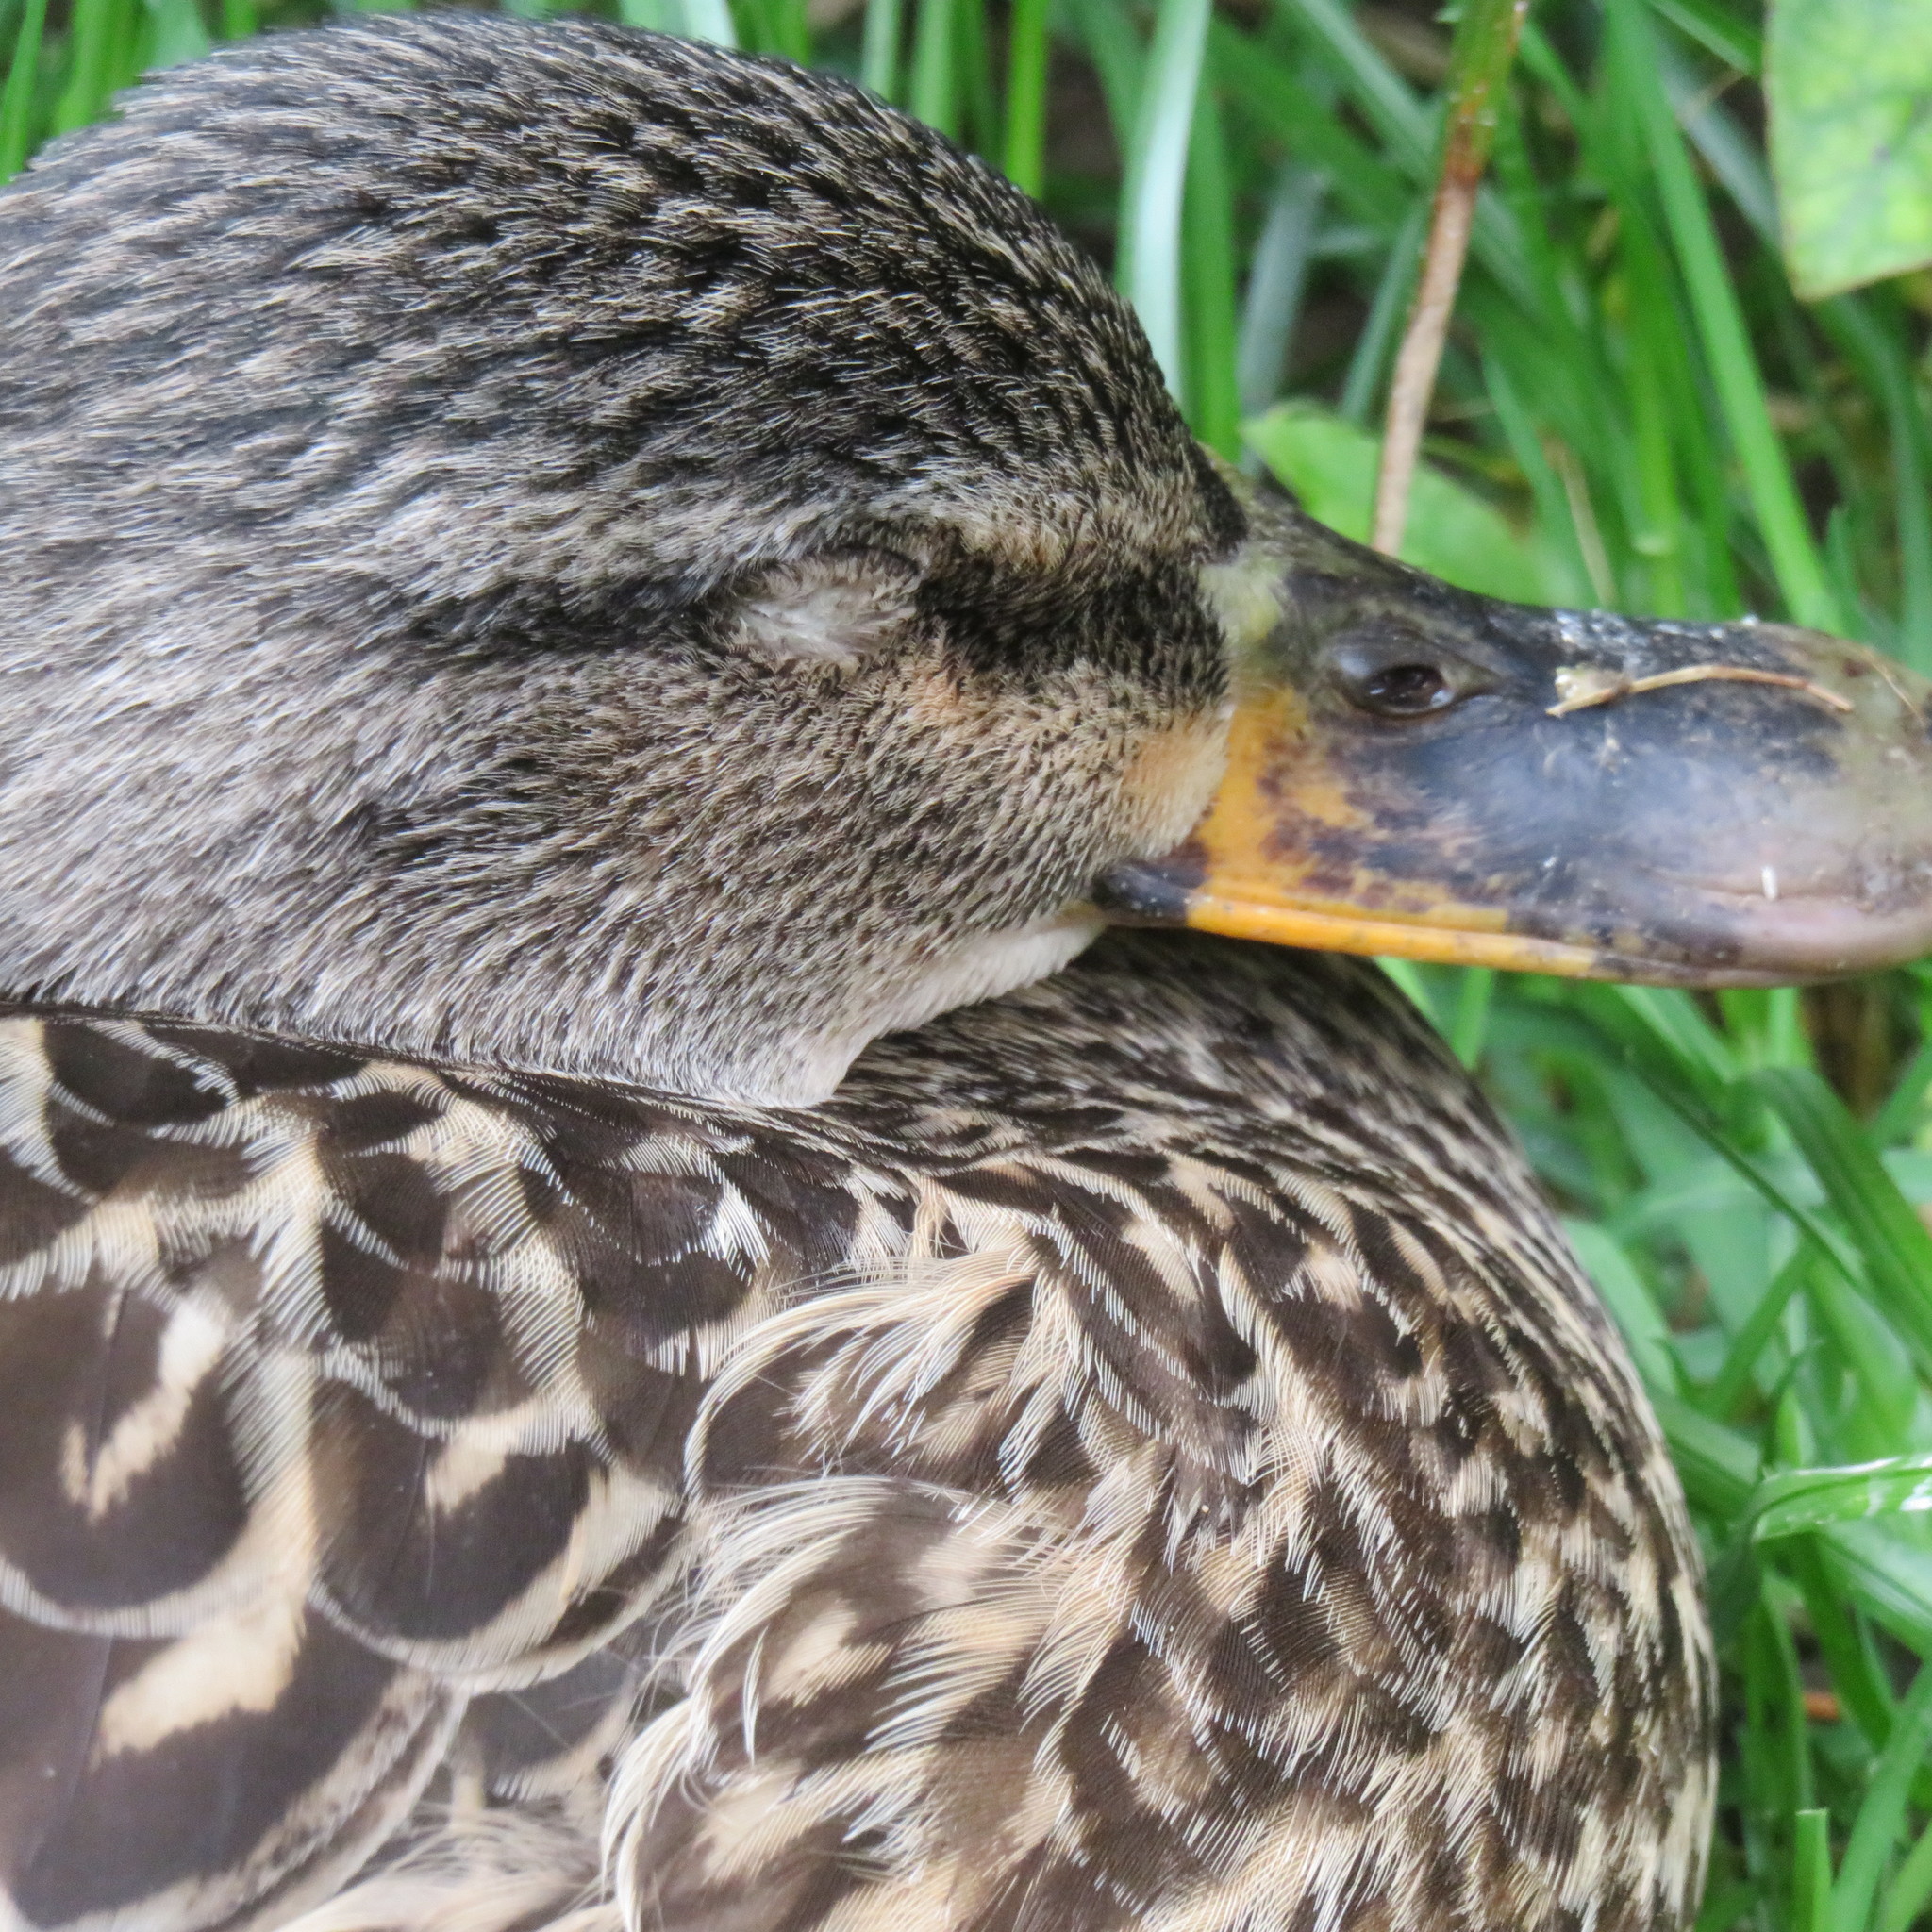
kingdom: Animalia
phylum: Chordata
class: Aves
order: Anseriformes
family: Anatidae
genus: Anas
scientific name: Anas platyrhynchos
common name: Mallard
